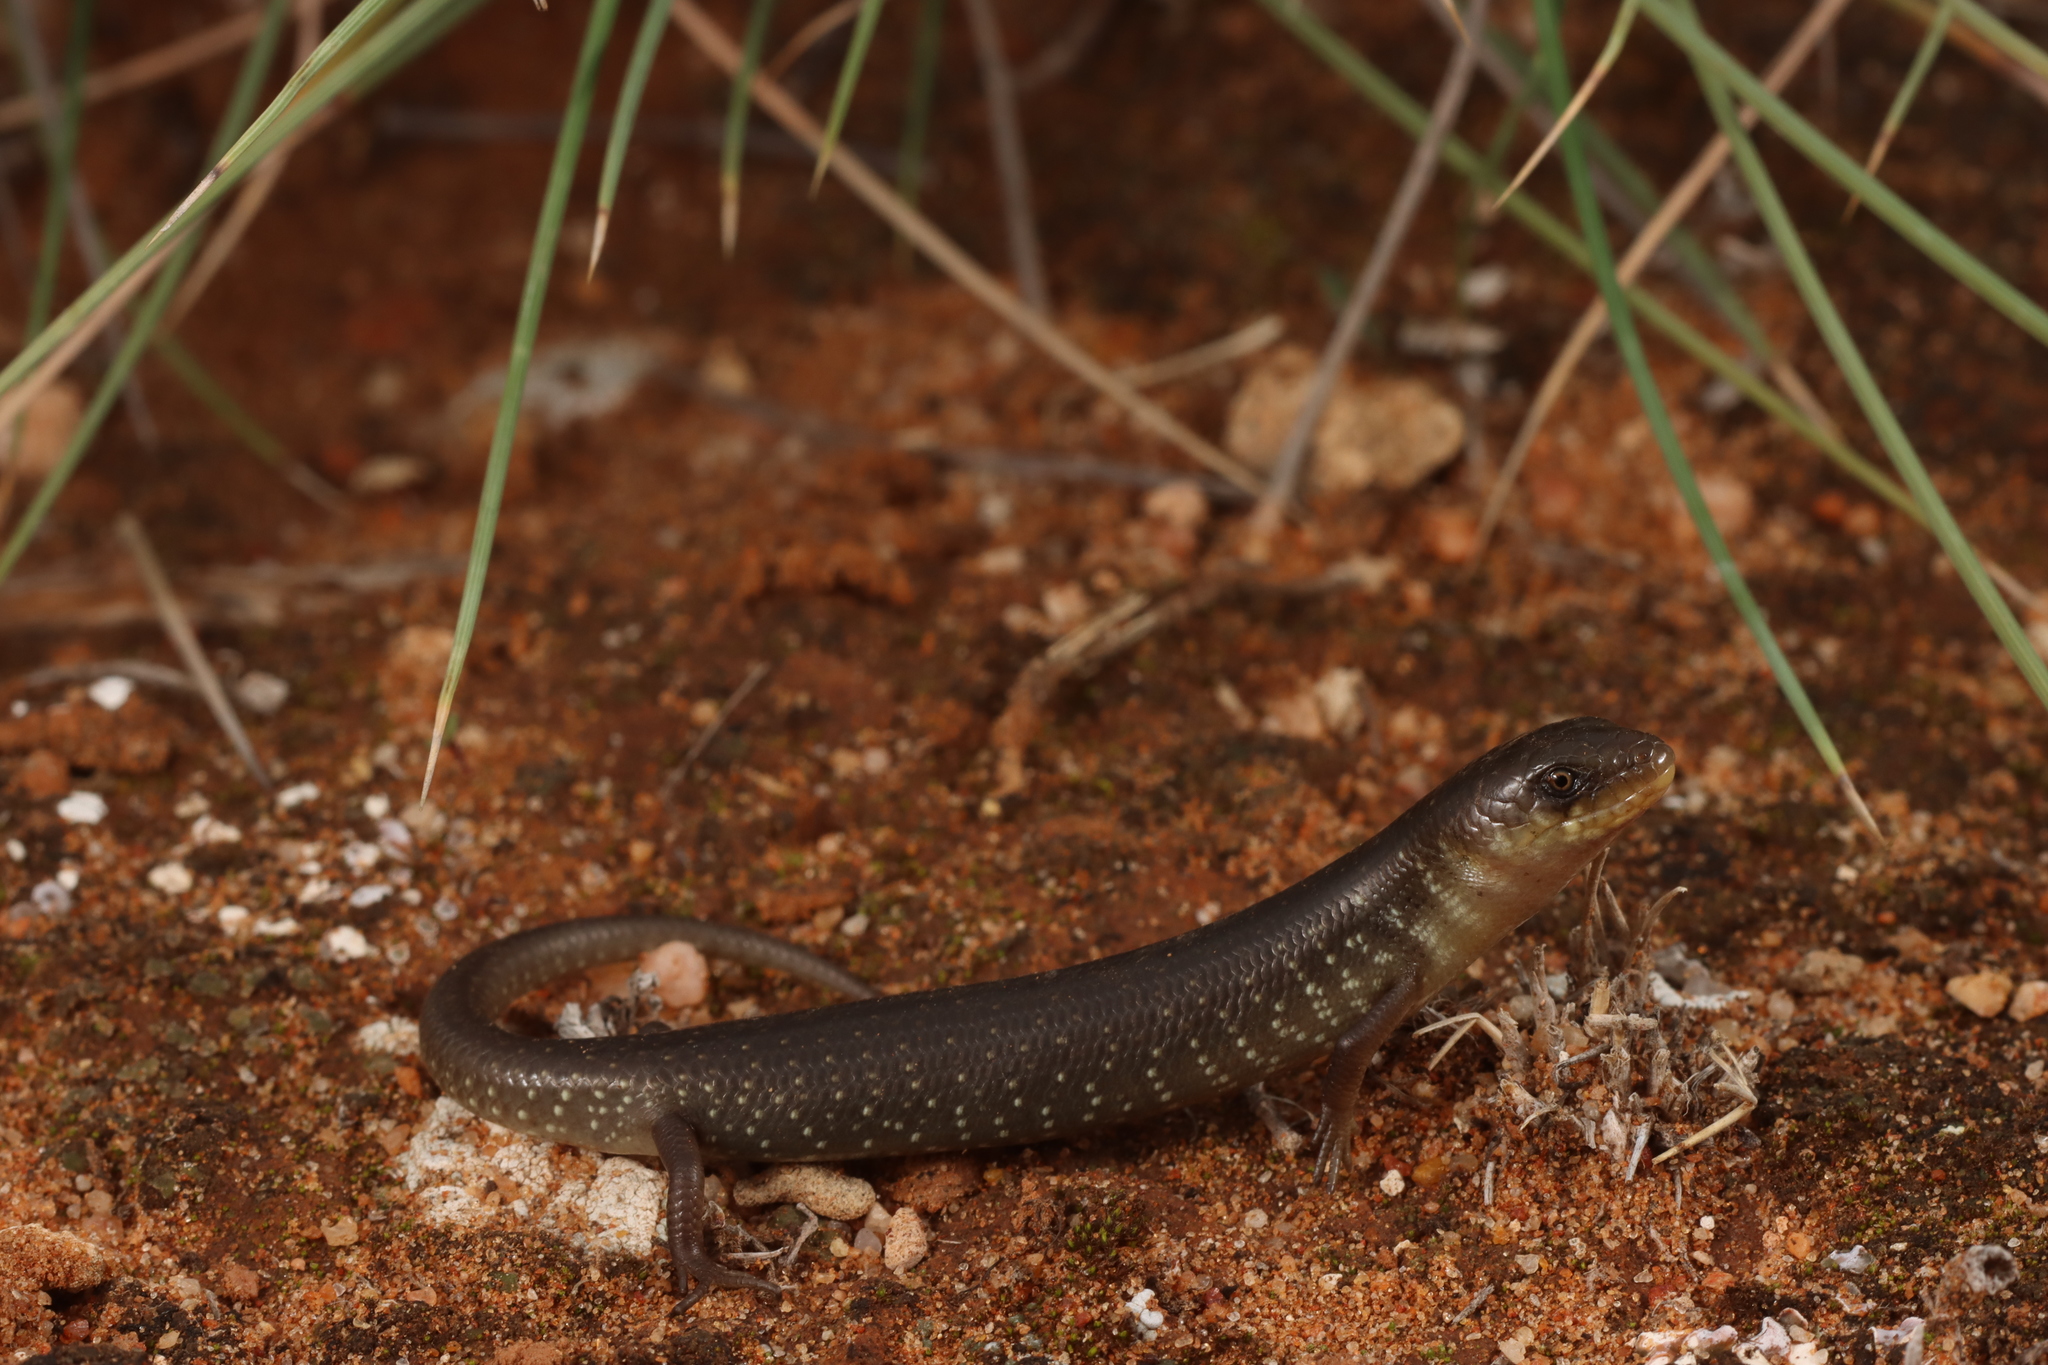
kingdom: Animalia
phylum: Chordata
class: Squamata
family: Scincidae
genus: Cyclodomorphus
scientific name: Cyclodomorphus melanops
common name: Samphire slender bluetongue
